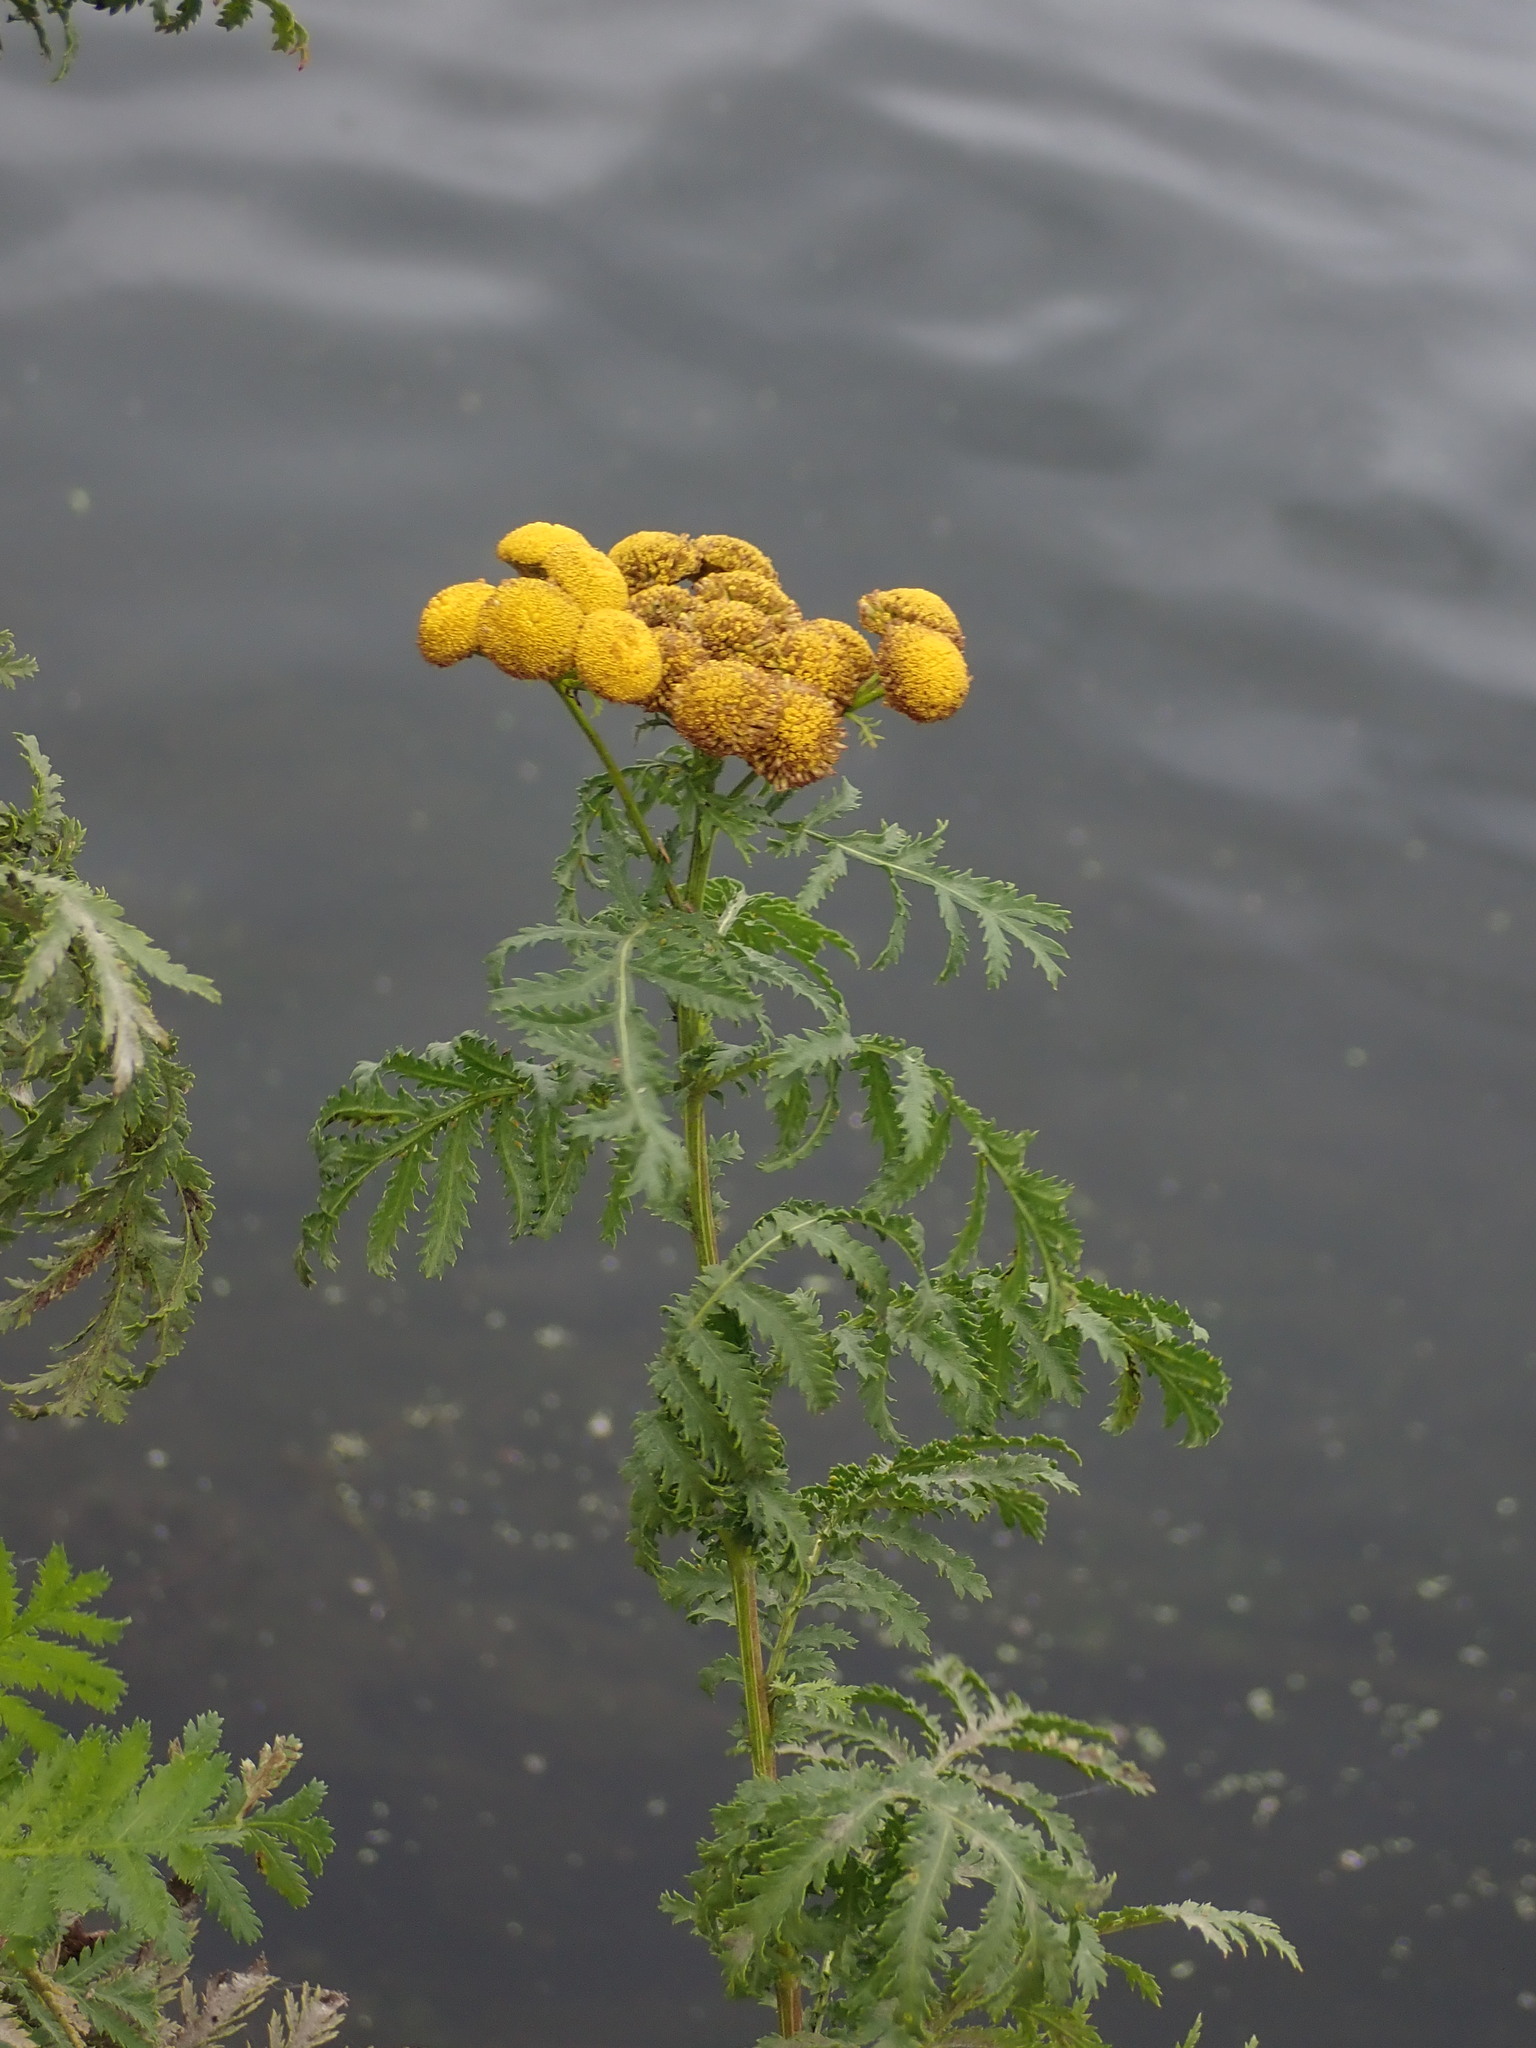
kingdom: Plantae
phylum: Tracheophyta
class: Magnoliopsida
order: Asterales
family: Asteraceae
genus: Tanacetum
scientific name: Tanacetum vulgare
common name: Common tansy
